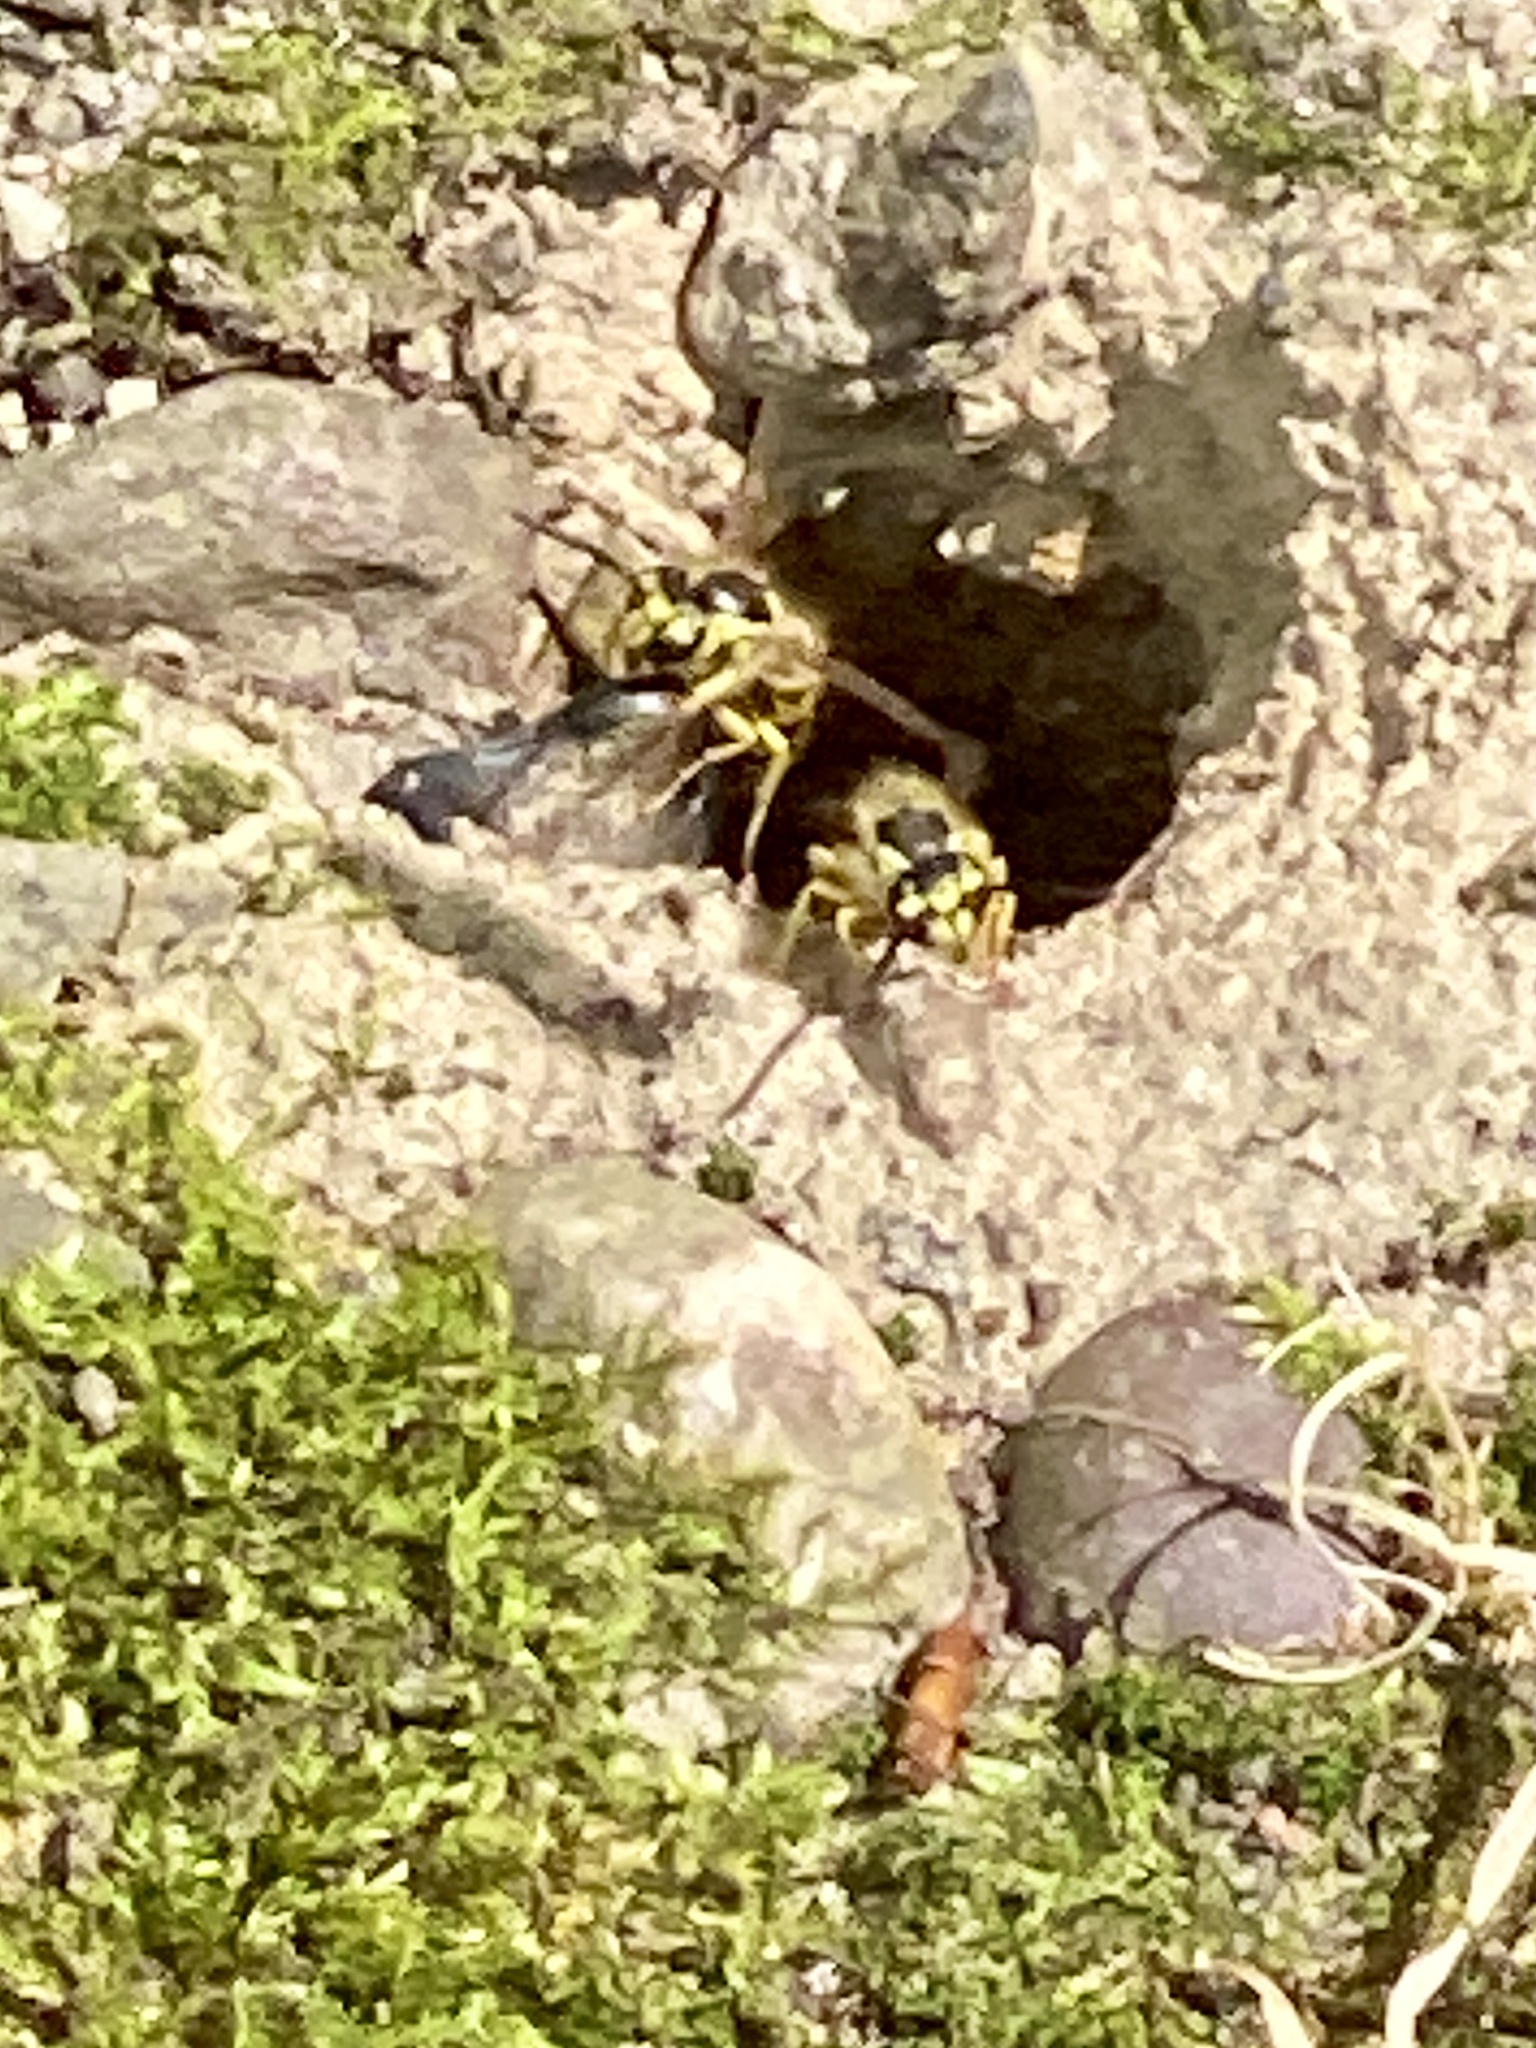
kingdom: Animalia
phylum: Arthropoda
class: Insecta
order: Hymenoptera
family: Vespidae
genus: Vespula
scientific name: Vespula flavopilosa
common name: Downy yellowjacket
